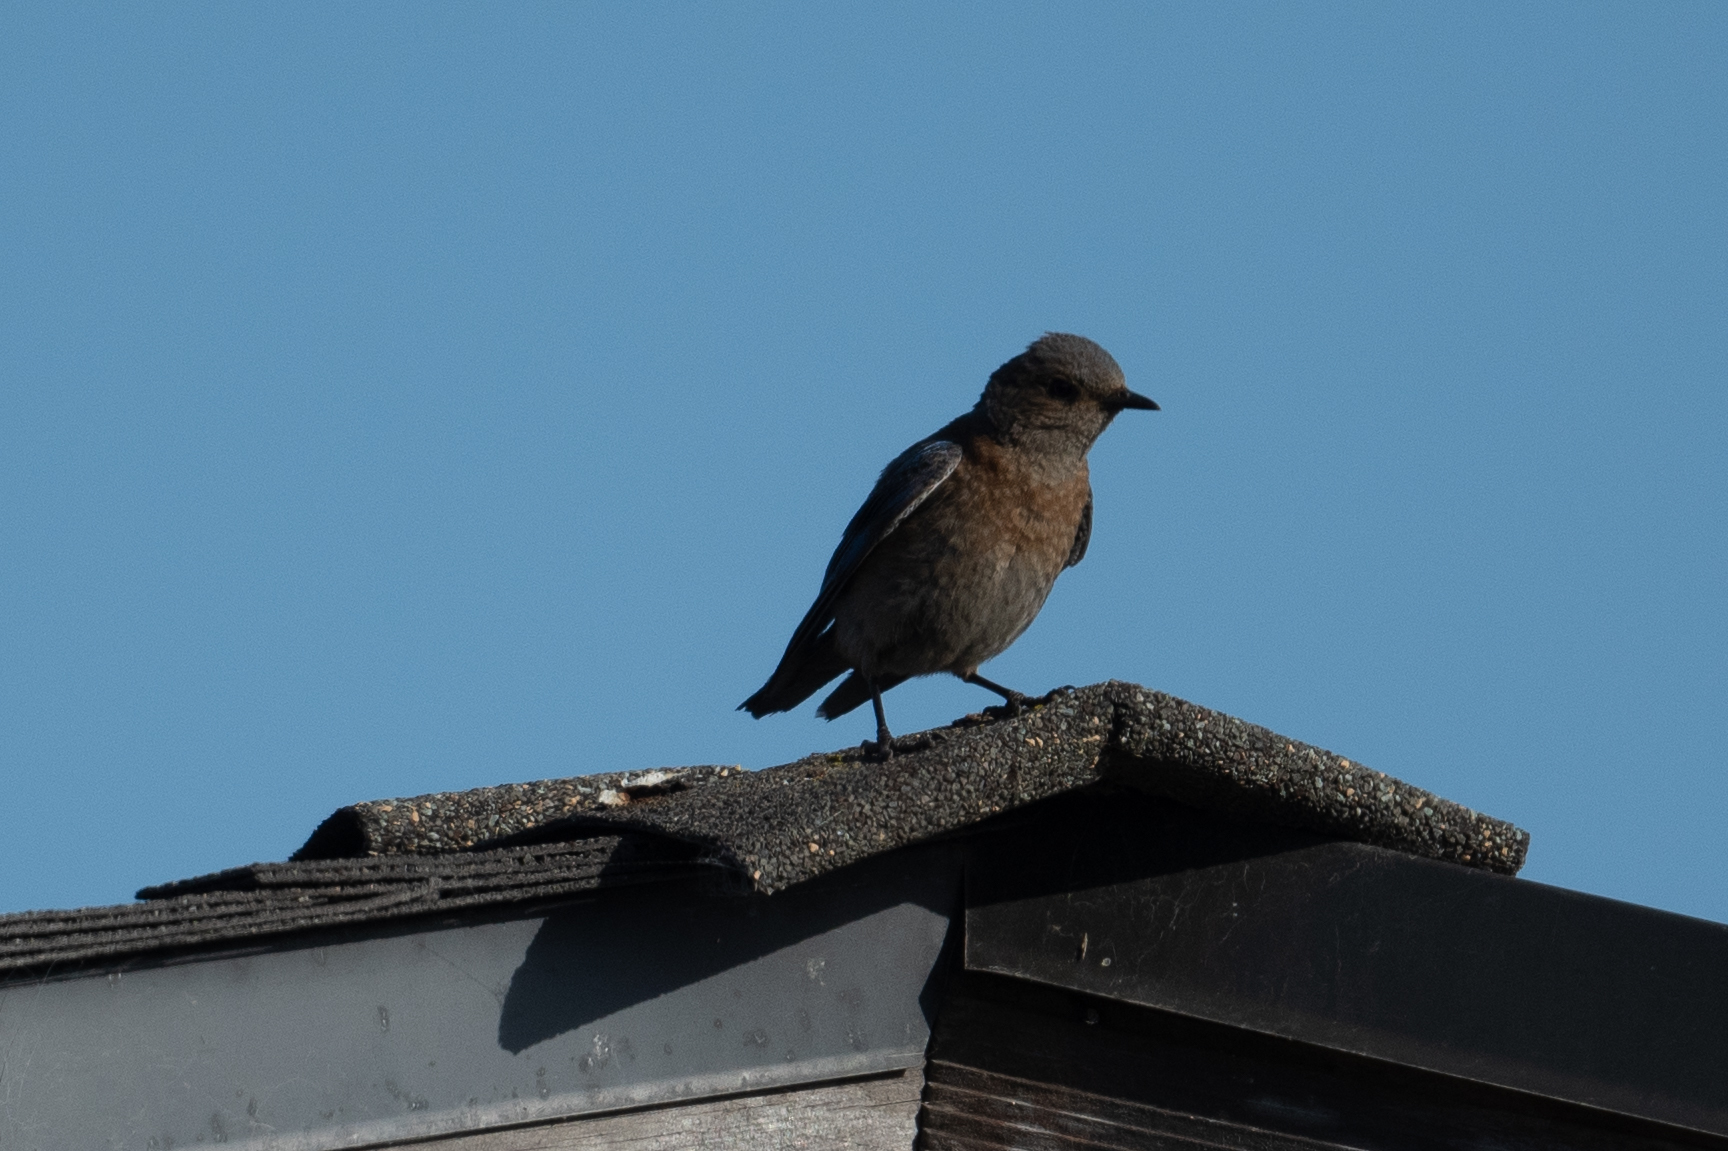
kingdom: Animalia
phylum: Chordata
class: Aves
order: Passeriformes
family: Turdidae
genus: Sialia
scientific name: Sialia mexicana
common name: Western bluebird
